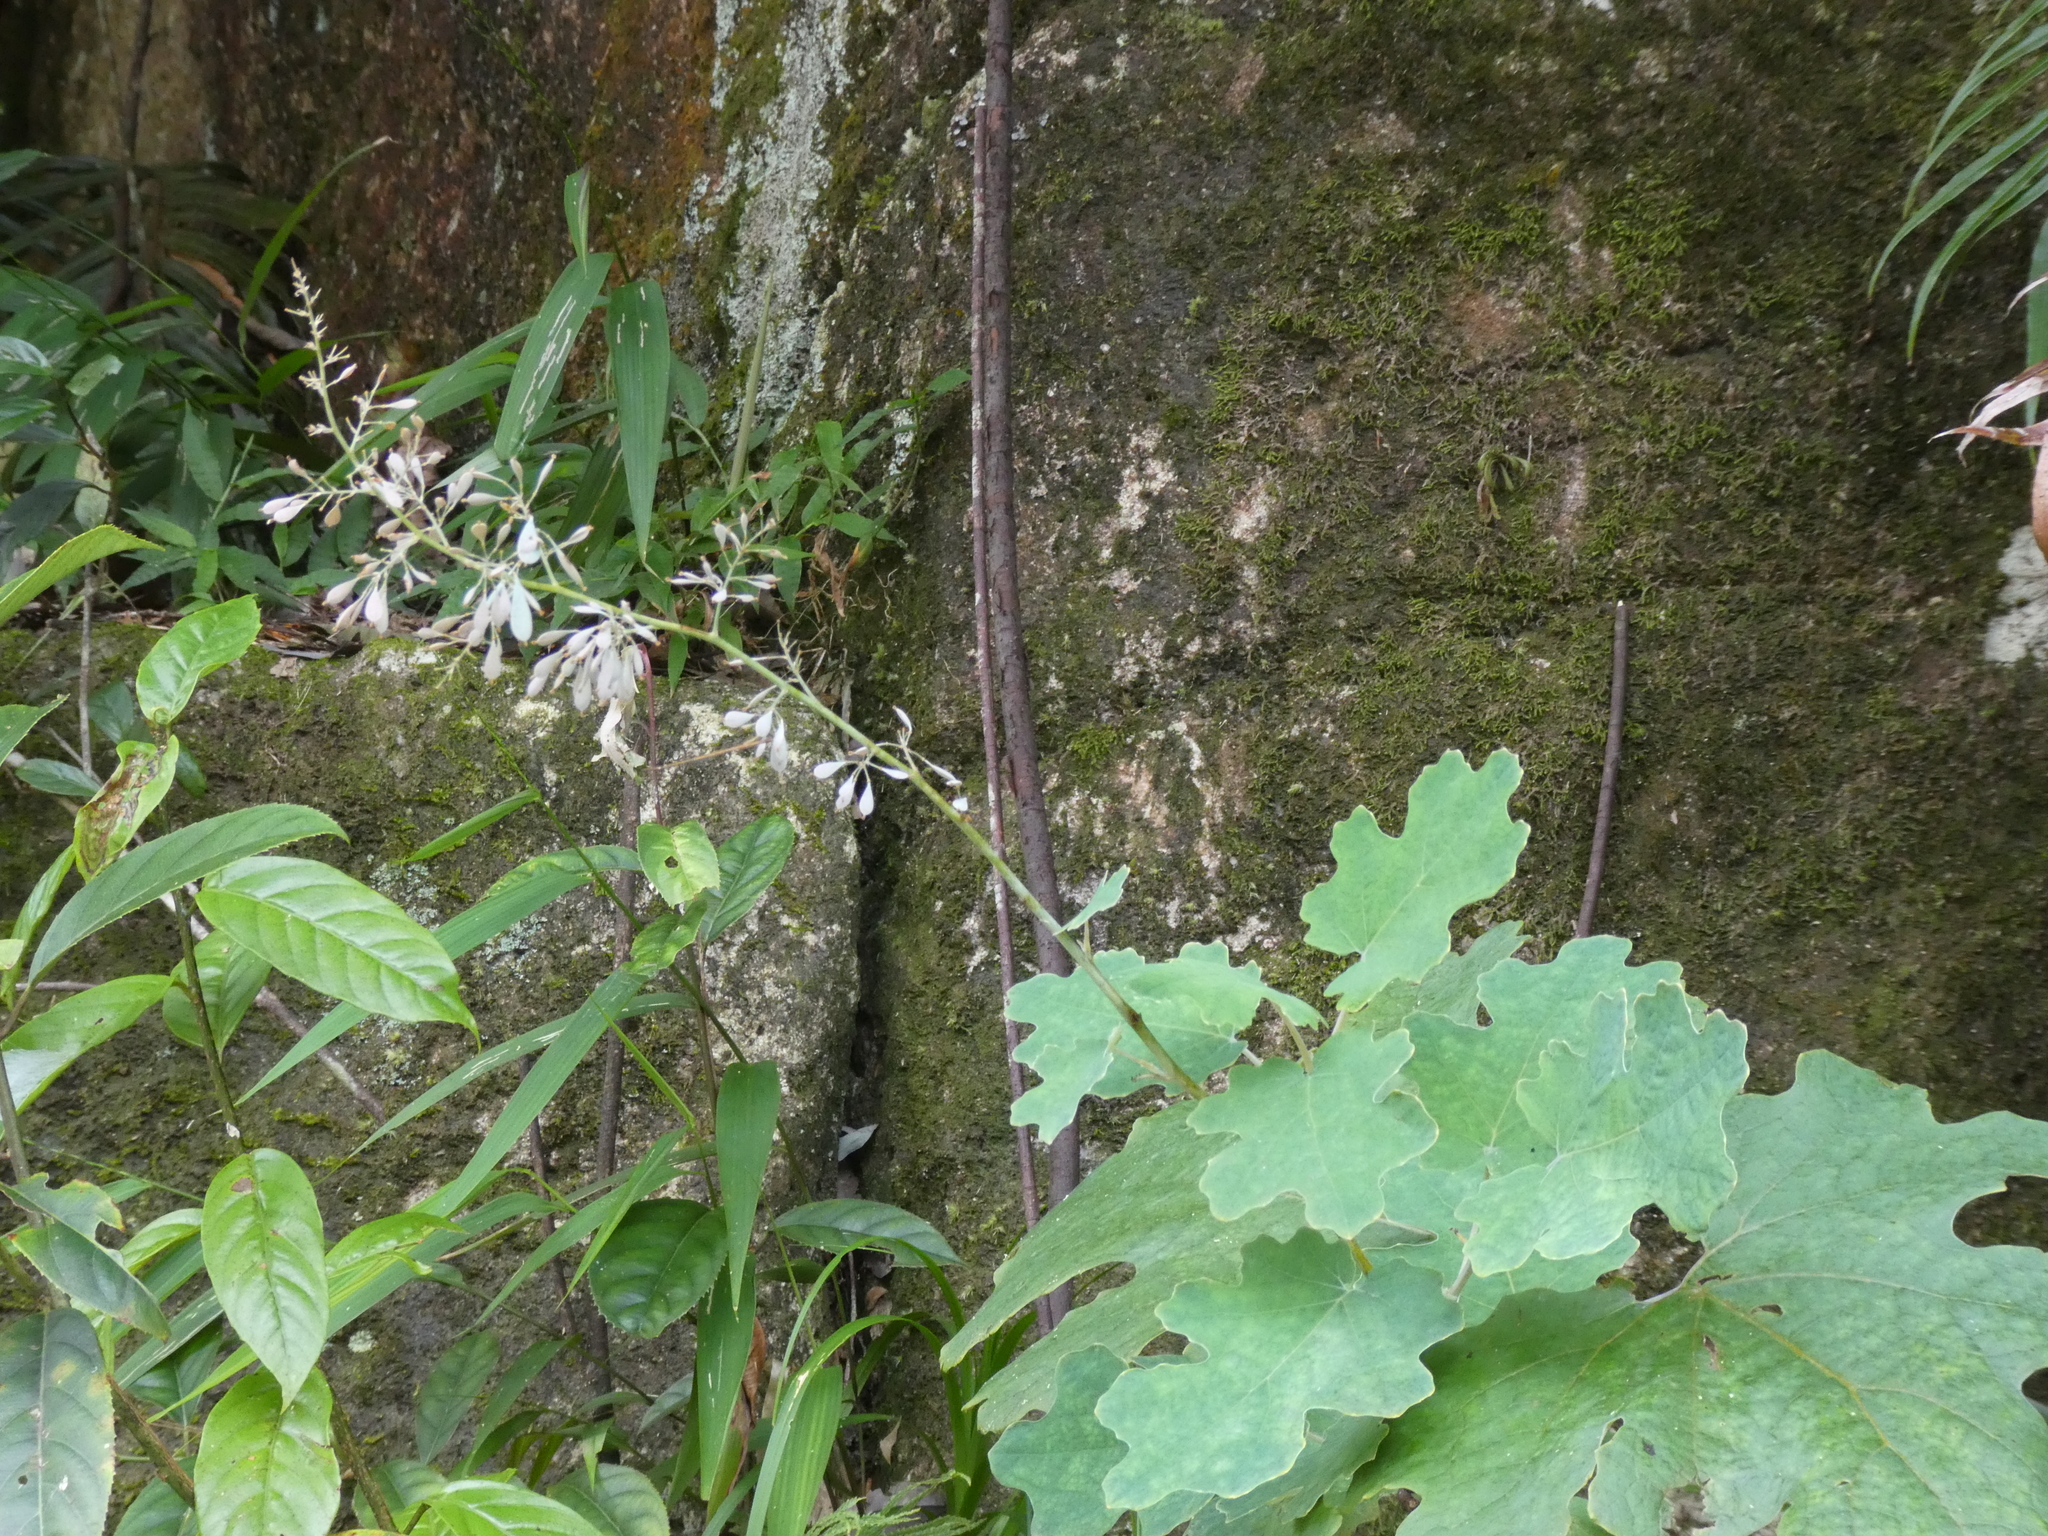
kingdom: Plantae
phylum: Tracheophyta
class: Magnoliopsida
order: Ranunculales
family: Papaveraceae
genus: Macleaya
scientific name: Macleaya cordata
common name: Plume poppy
